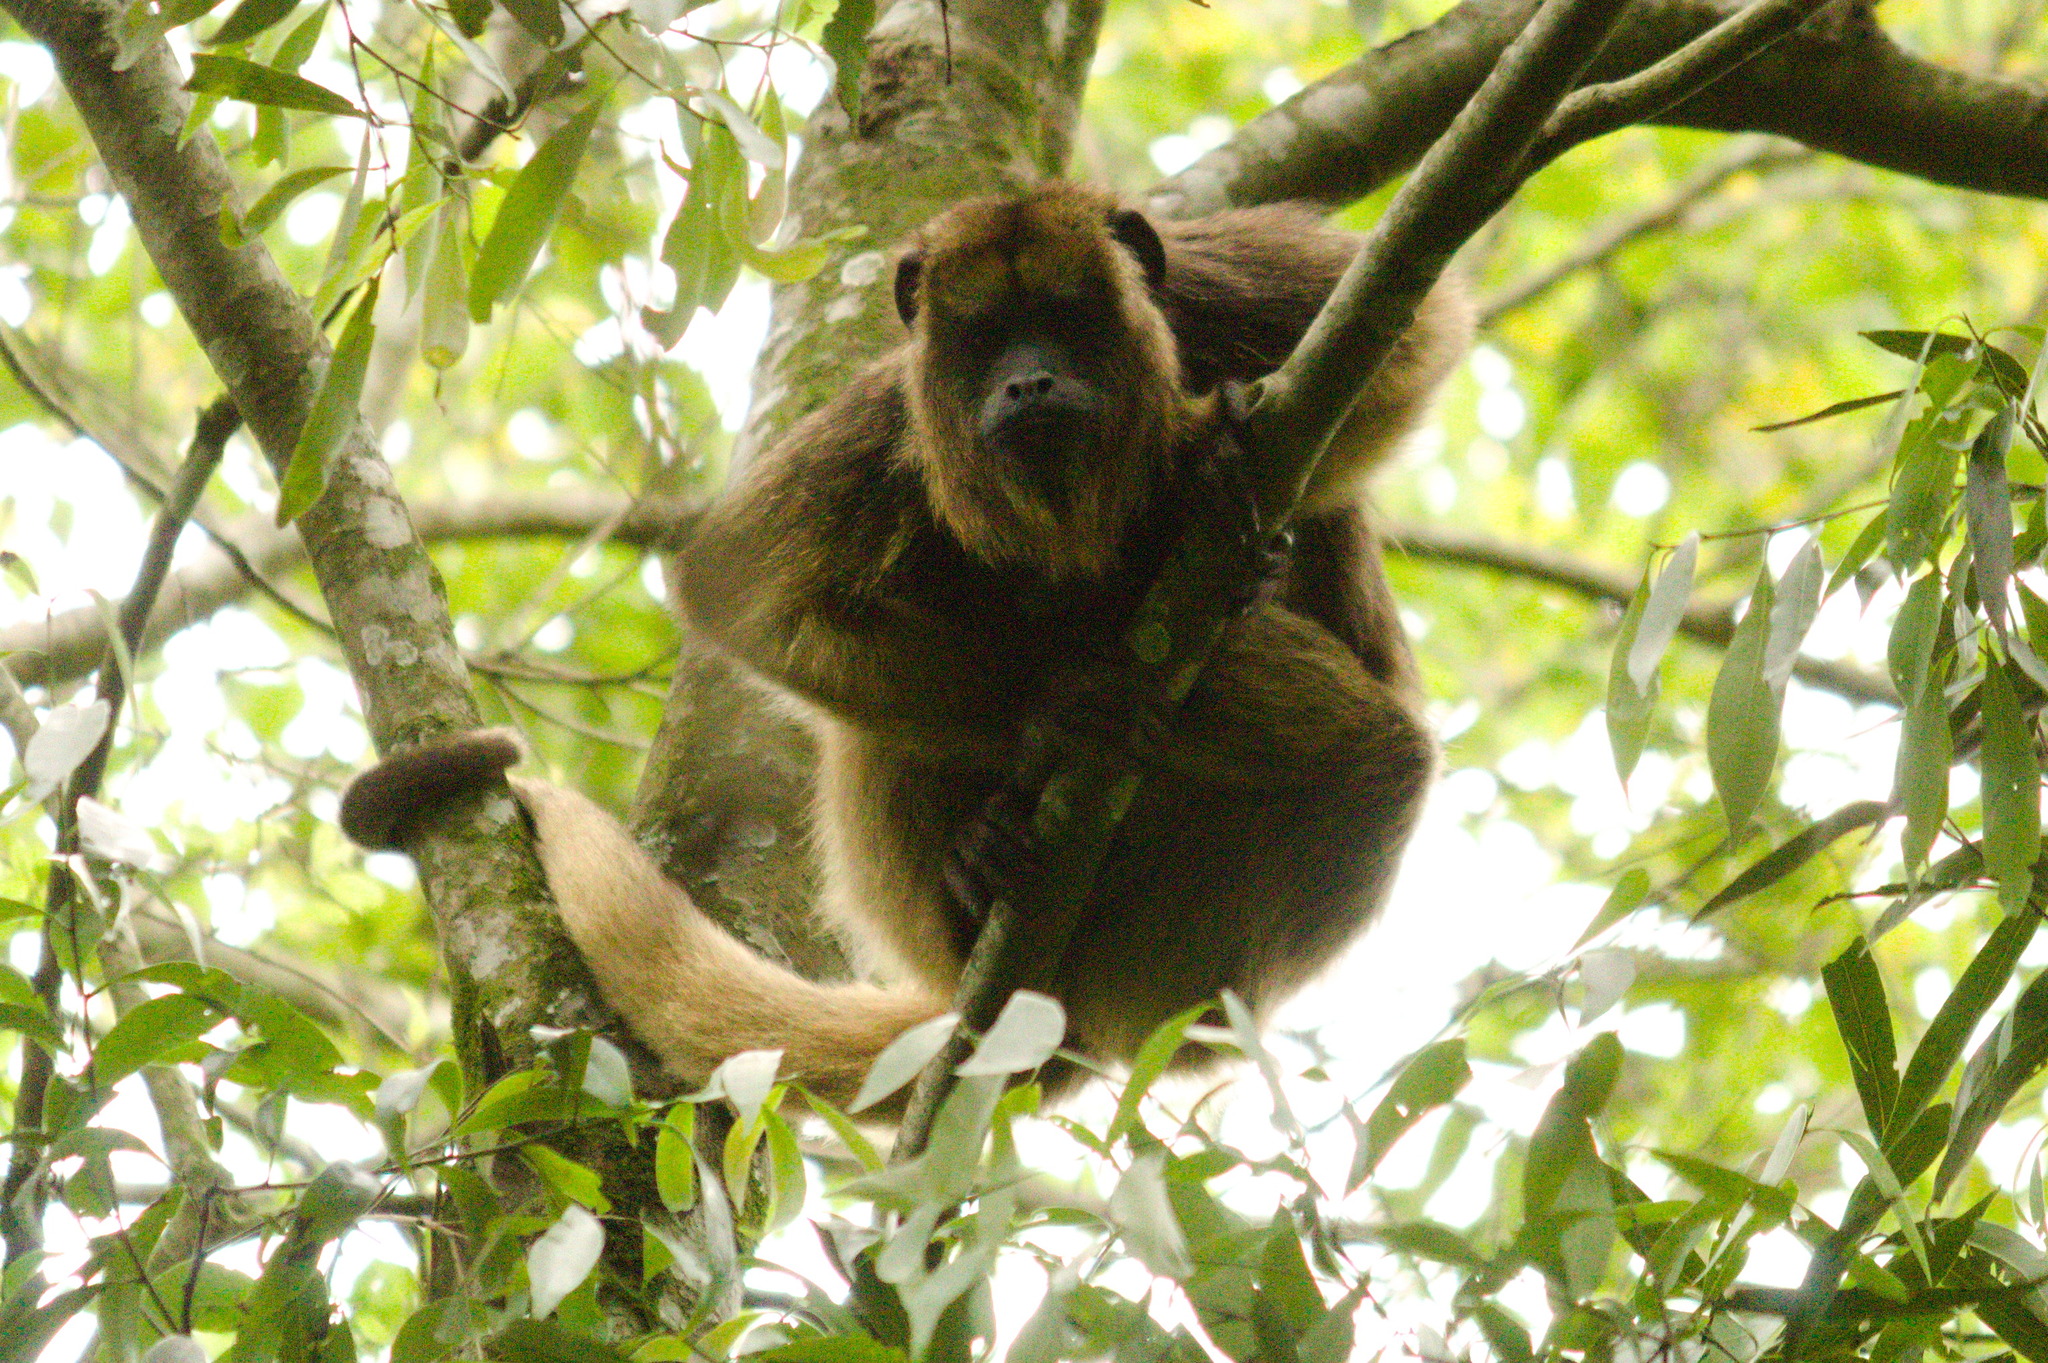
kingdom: Animalia
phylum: Chordata
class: Mammalia
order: Primates
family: Atelidae
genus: Alouatta
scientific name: Alouatta caraya
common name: Black howler
